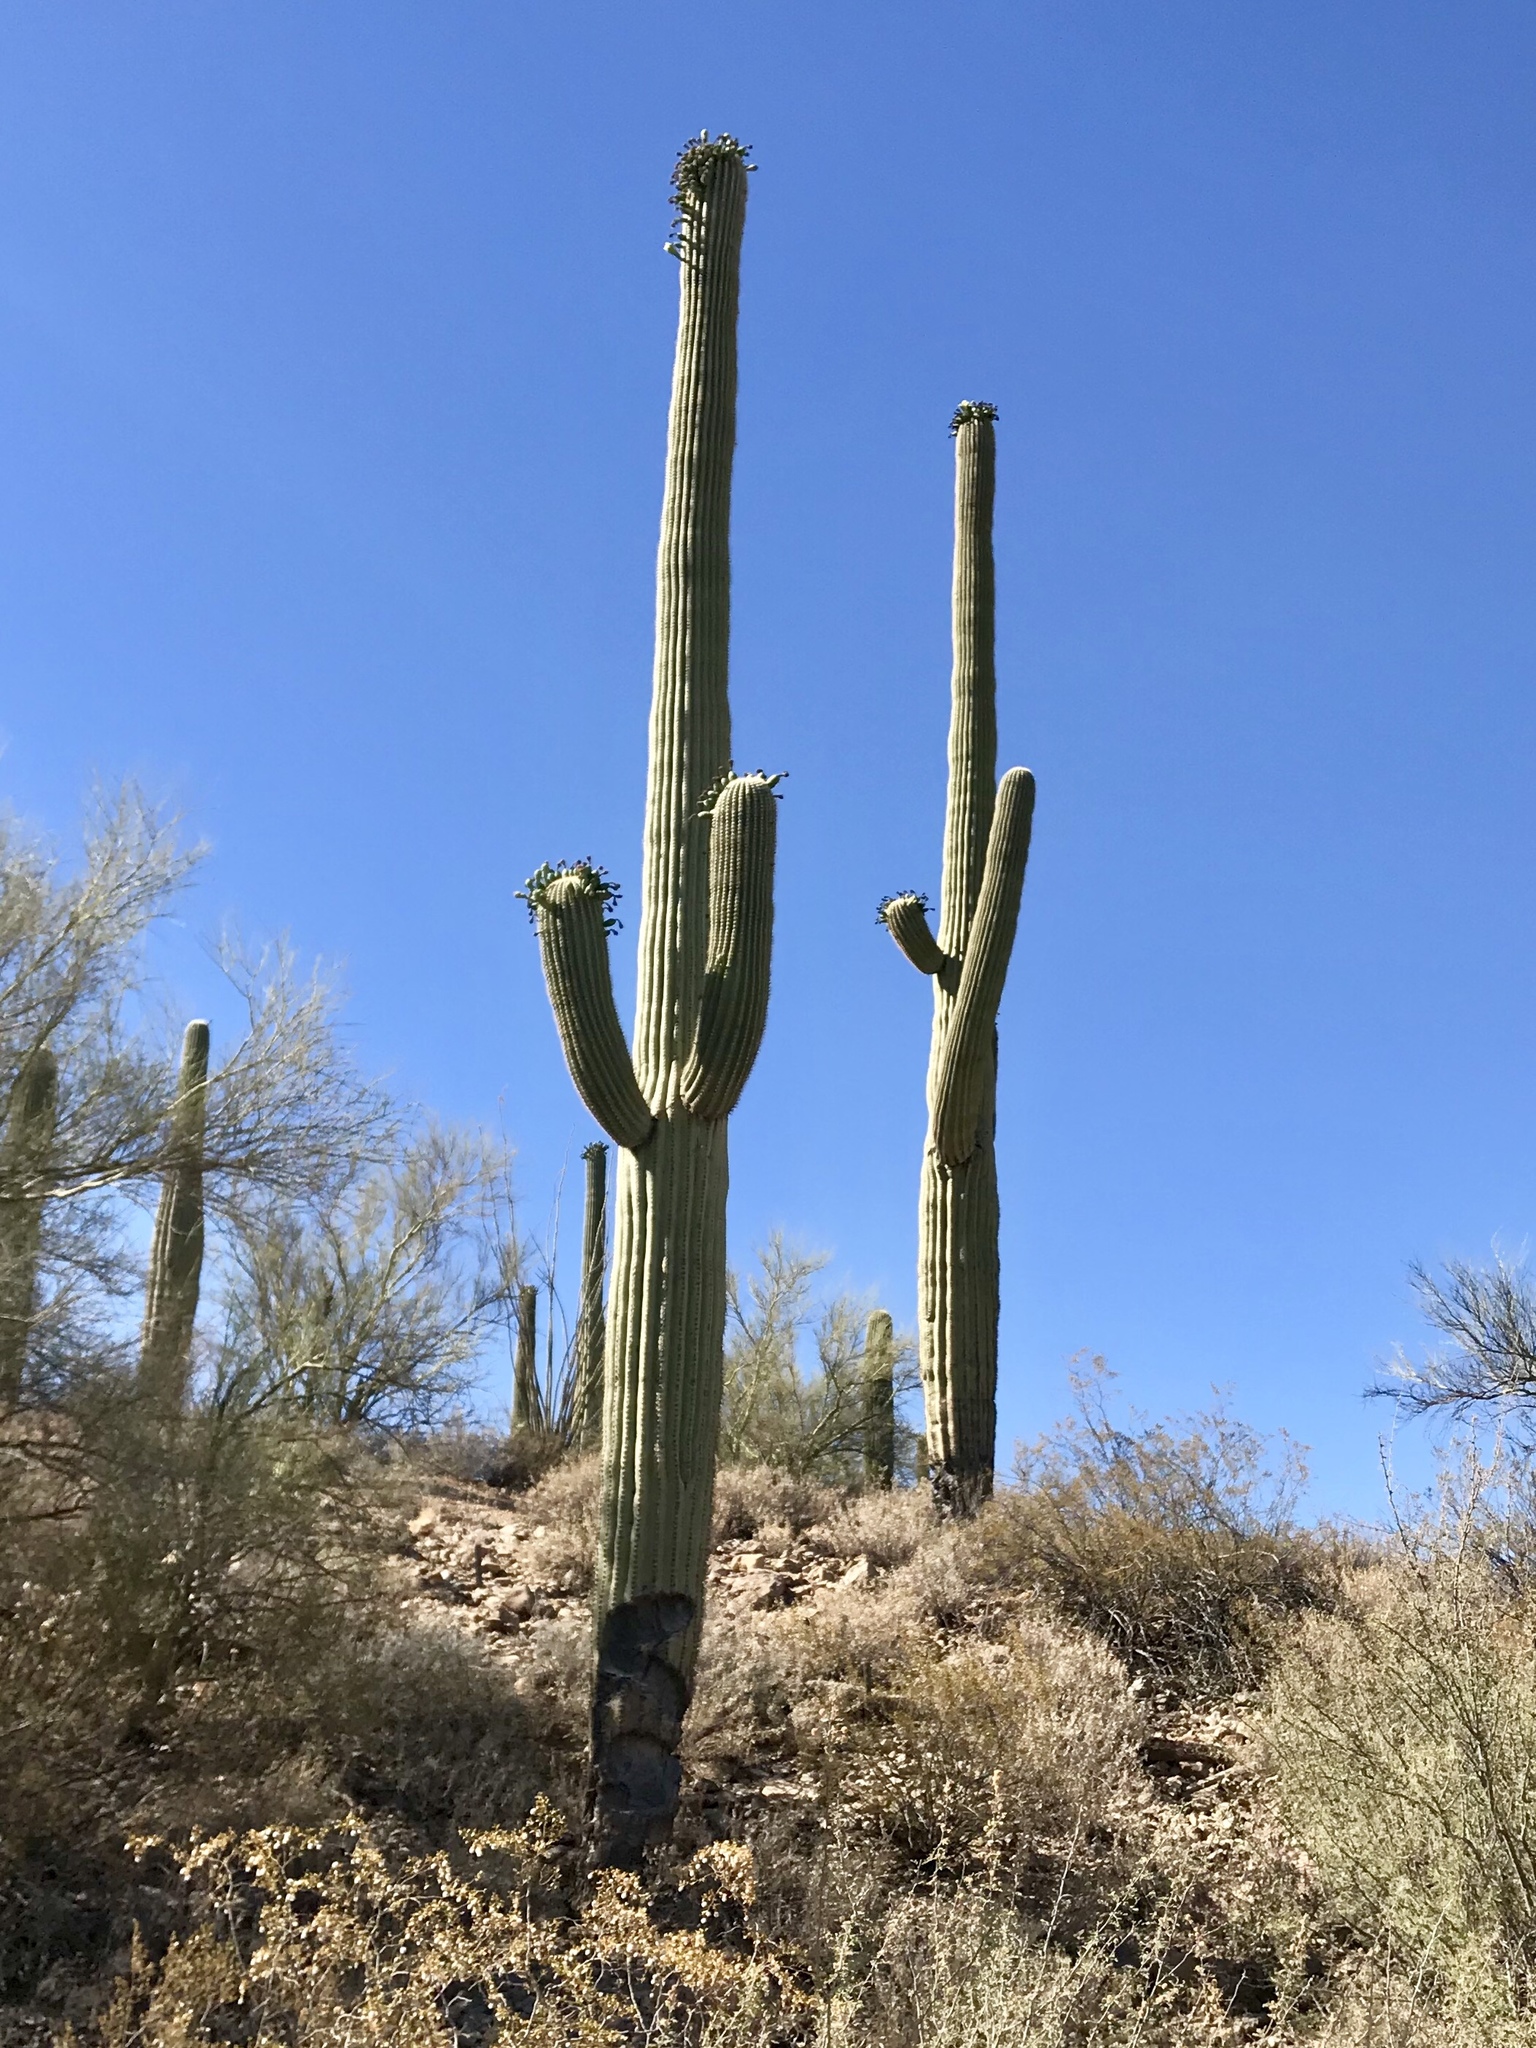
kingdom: Plantae
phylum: Tracheophyta
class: Magnoliopsida
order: Caryophyllales
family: Cactaceae
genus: Carnegiea
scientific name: Carnegiea gigantea
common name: Saguaro
